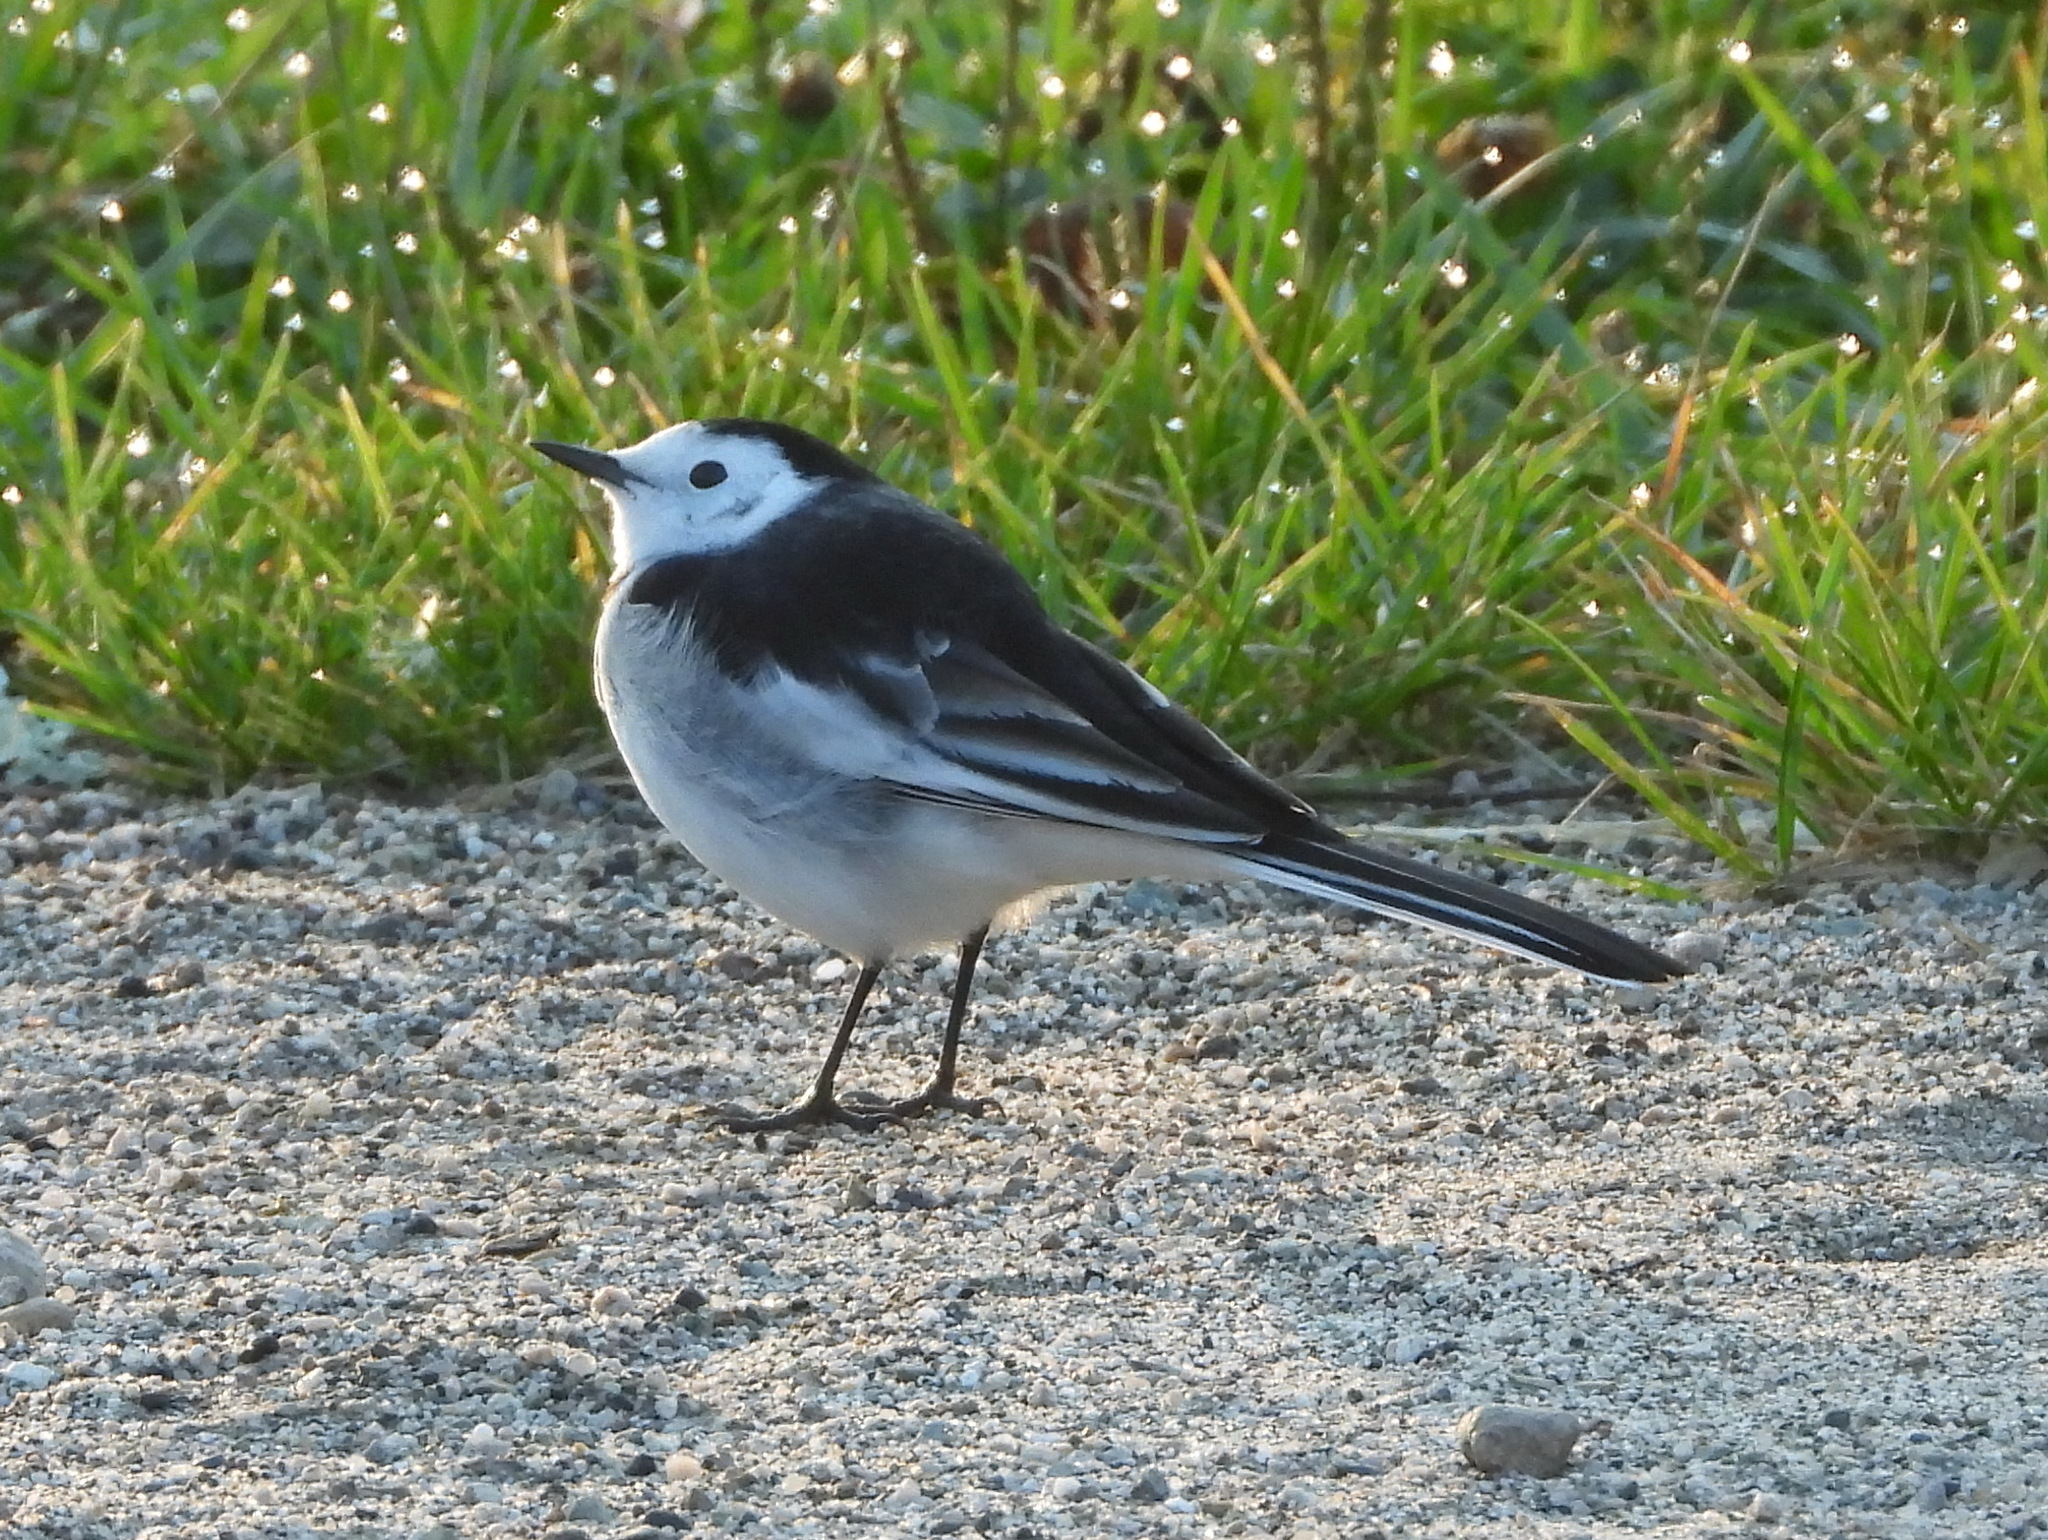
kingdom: Animalia
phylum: Chordata
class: Aves
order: Passeriformes
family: Motacillidae
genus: Motacilla
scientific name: Motacilla alba
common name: White wagtail
